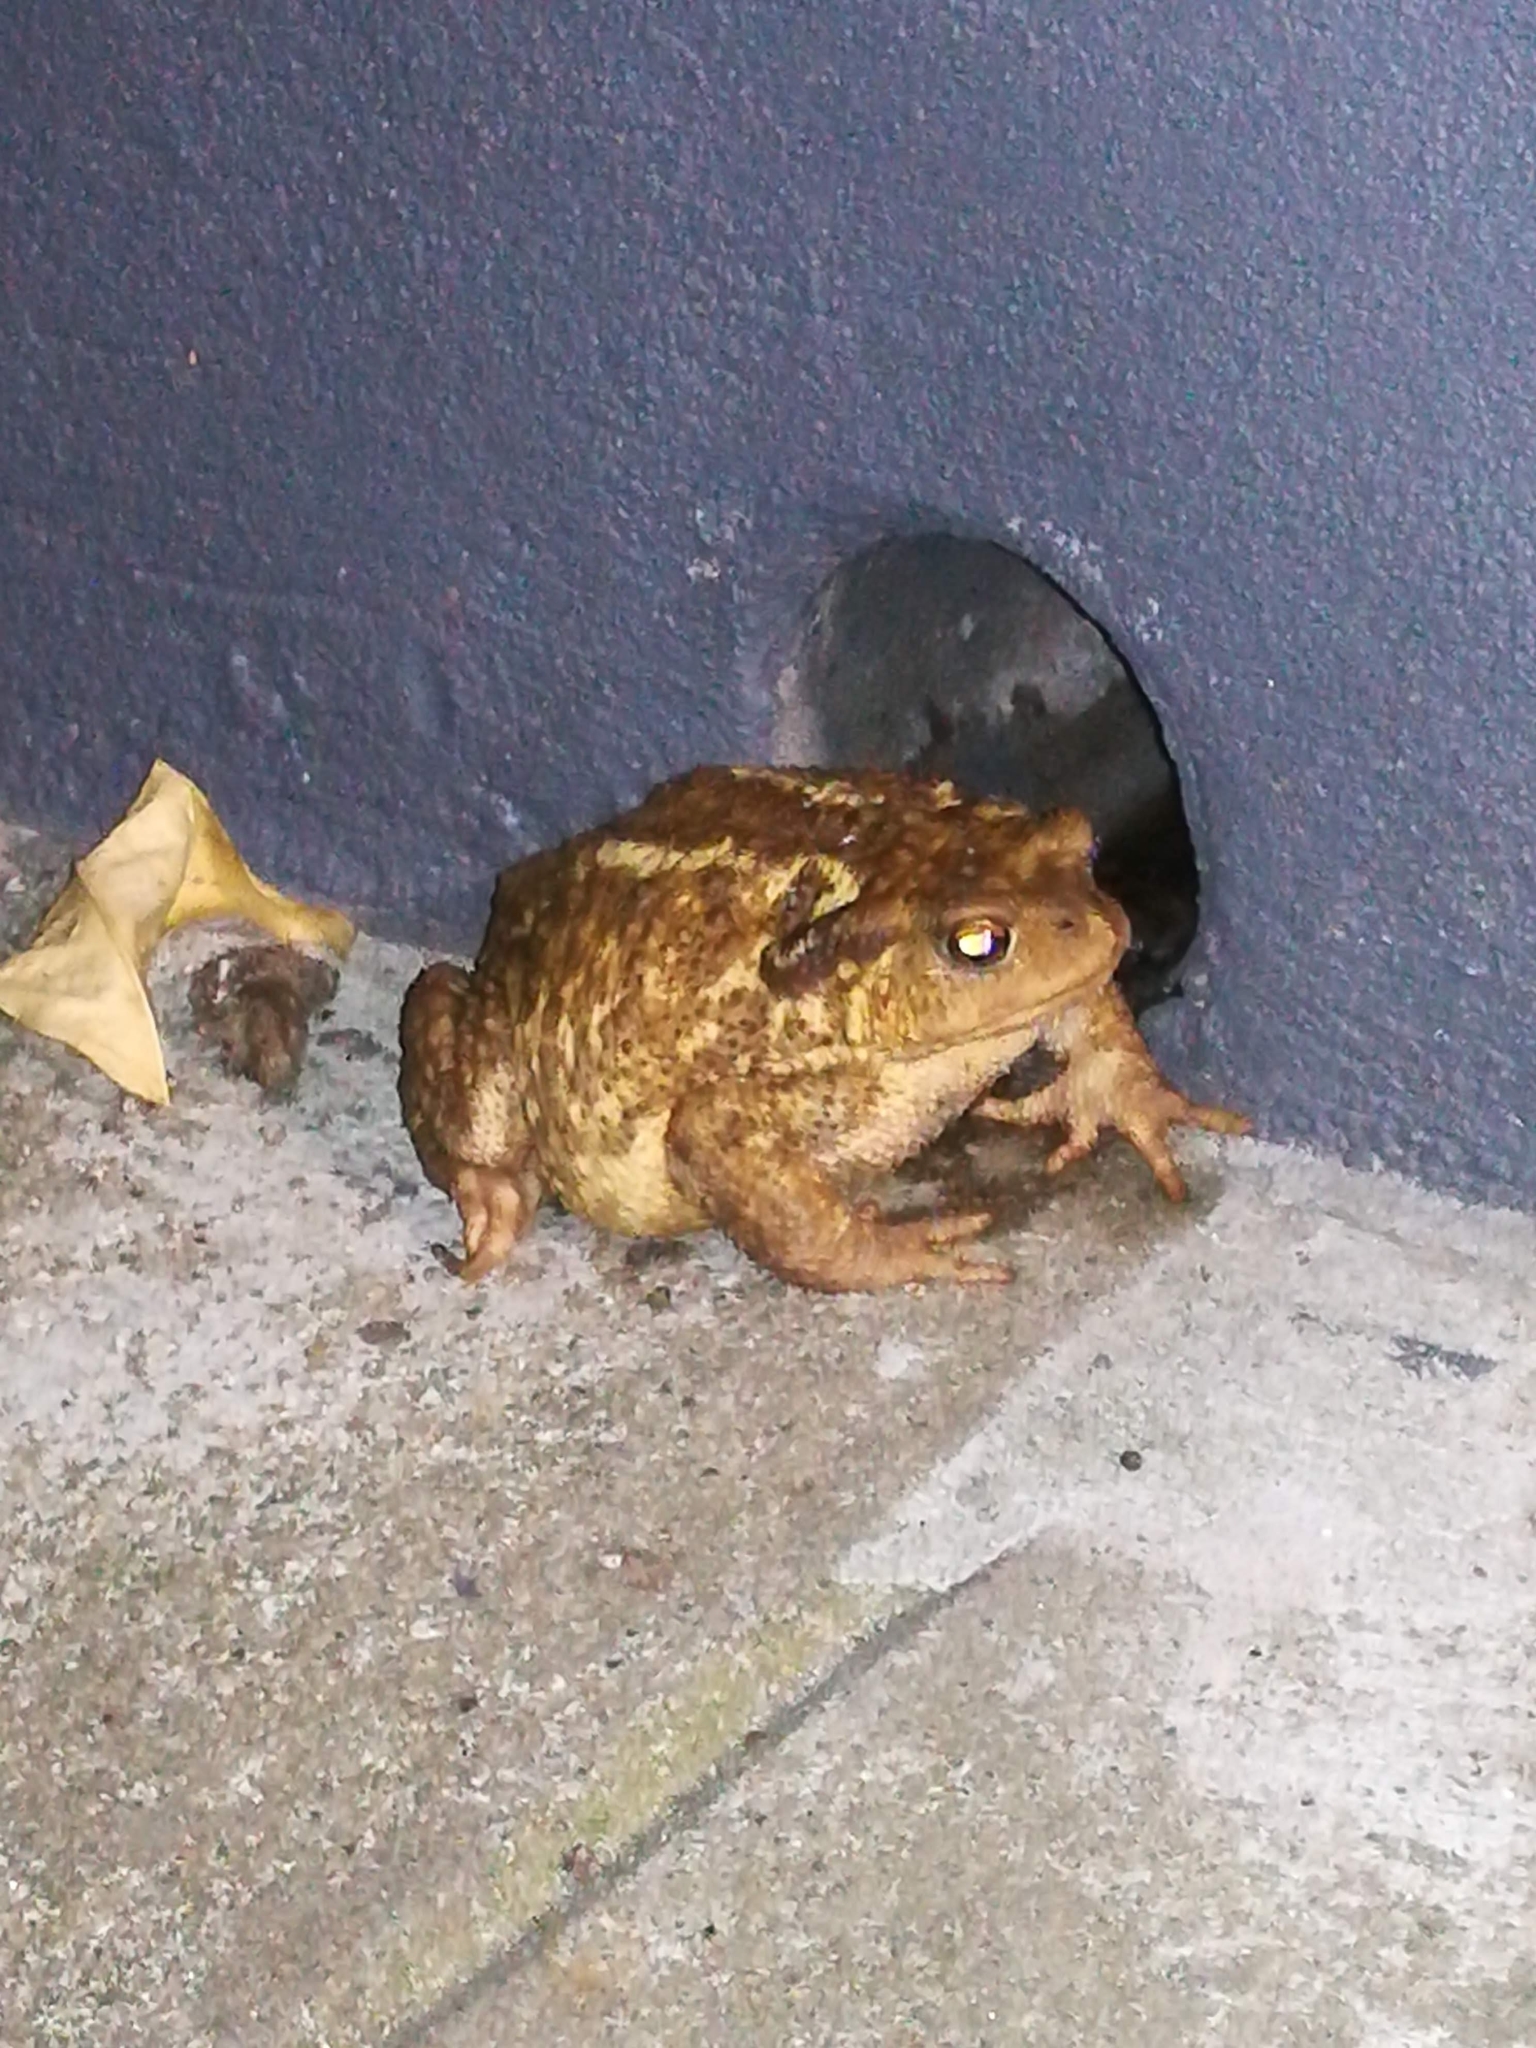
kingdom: Animalia
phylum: Chordata
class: Amphibia
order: Anura
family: Bufonidae
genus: Bufo
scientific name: Bufo spinosus
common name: Western common toad
